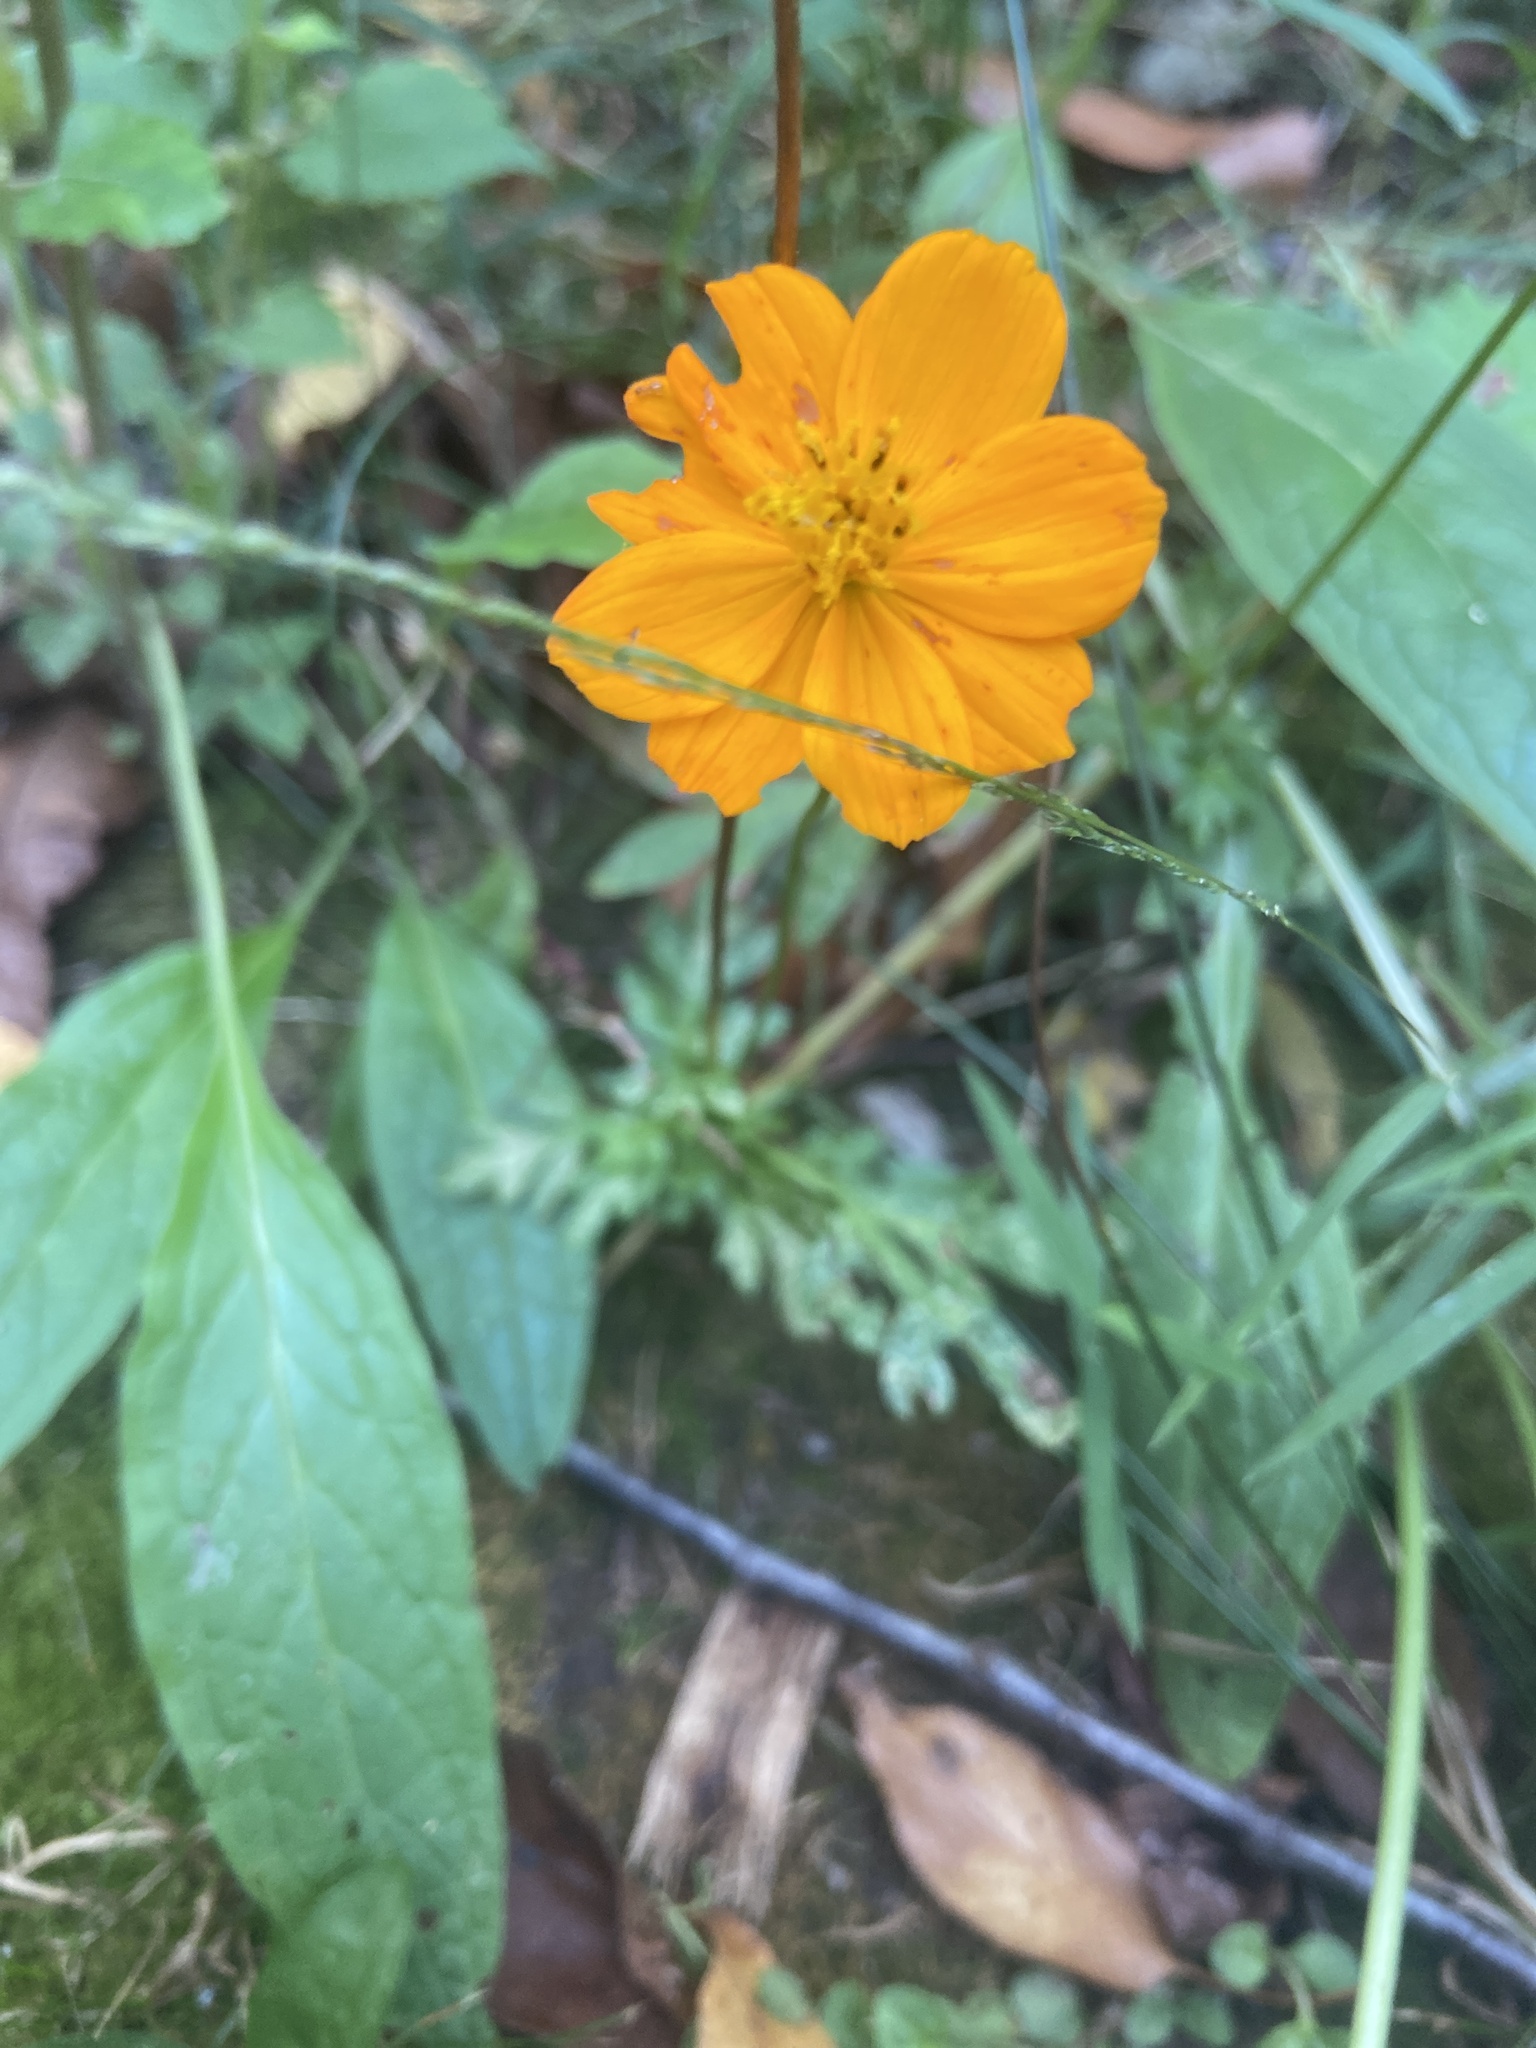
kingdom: Plantae
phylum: Tracheophyta
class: Magnoliopsida
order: Asterales
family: Asteraceae
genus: Cosmos
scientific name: Cosmos sulphureus
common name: Sulphur cosmos
